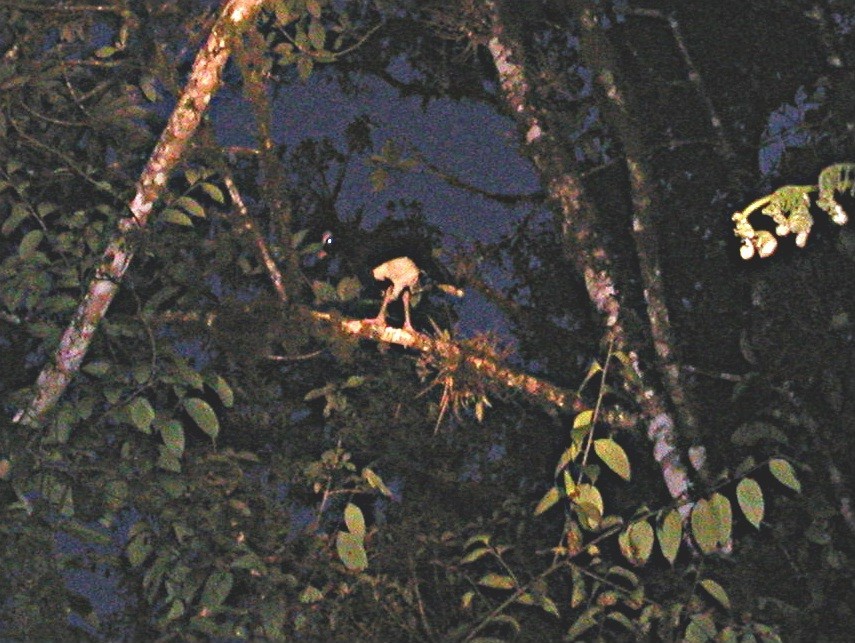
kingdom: Animalia
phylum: Chordata
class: Aves
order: Galliformes
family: Cracidae
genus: Pauxi
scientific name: Pauxi pauxi
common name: Helmeted curassow
